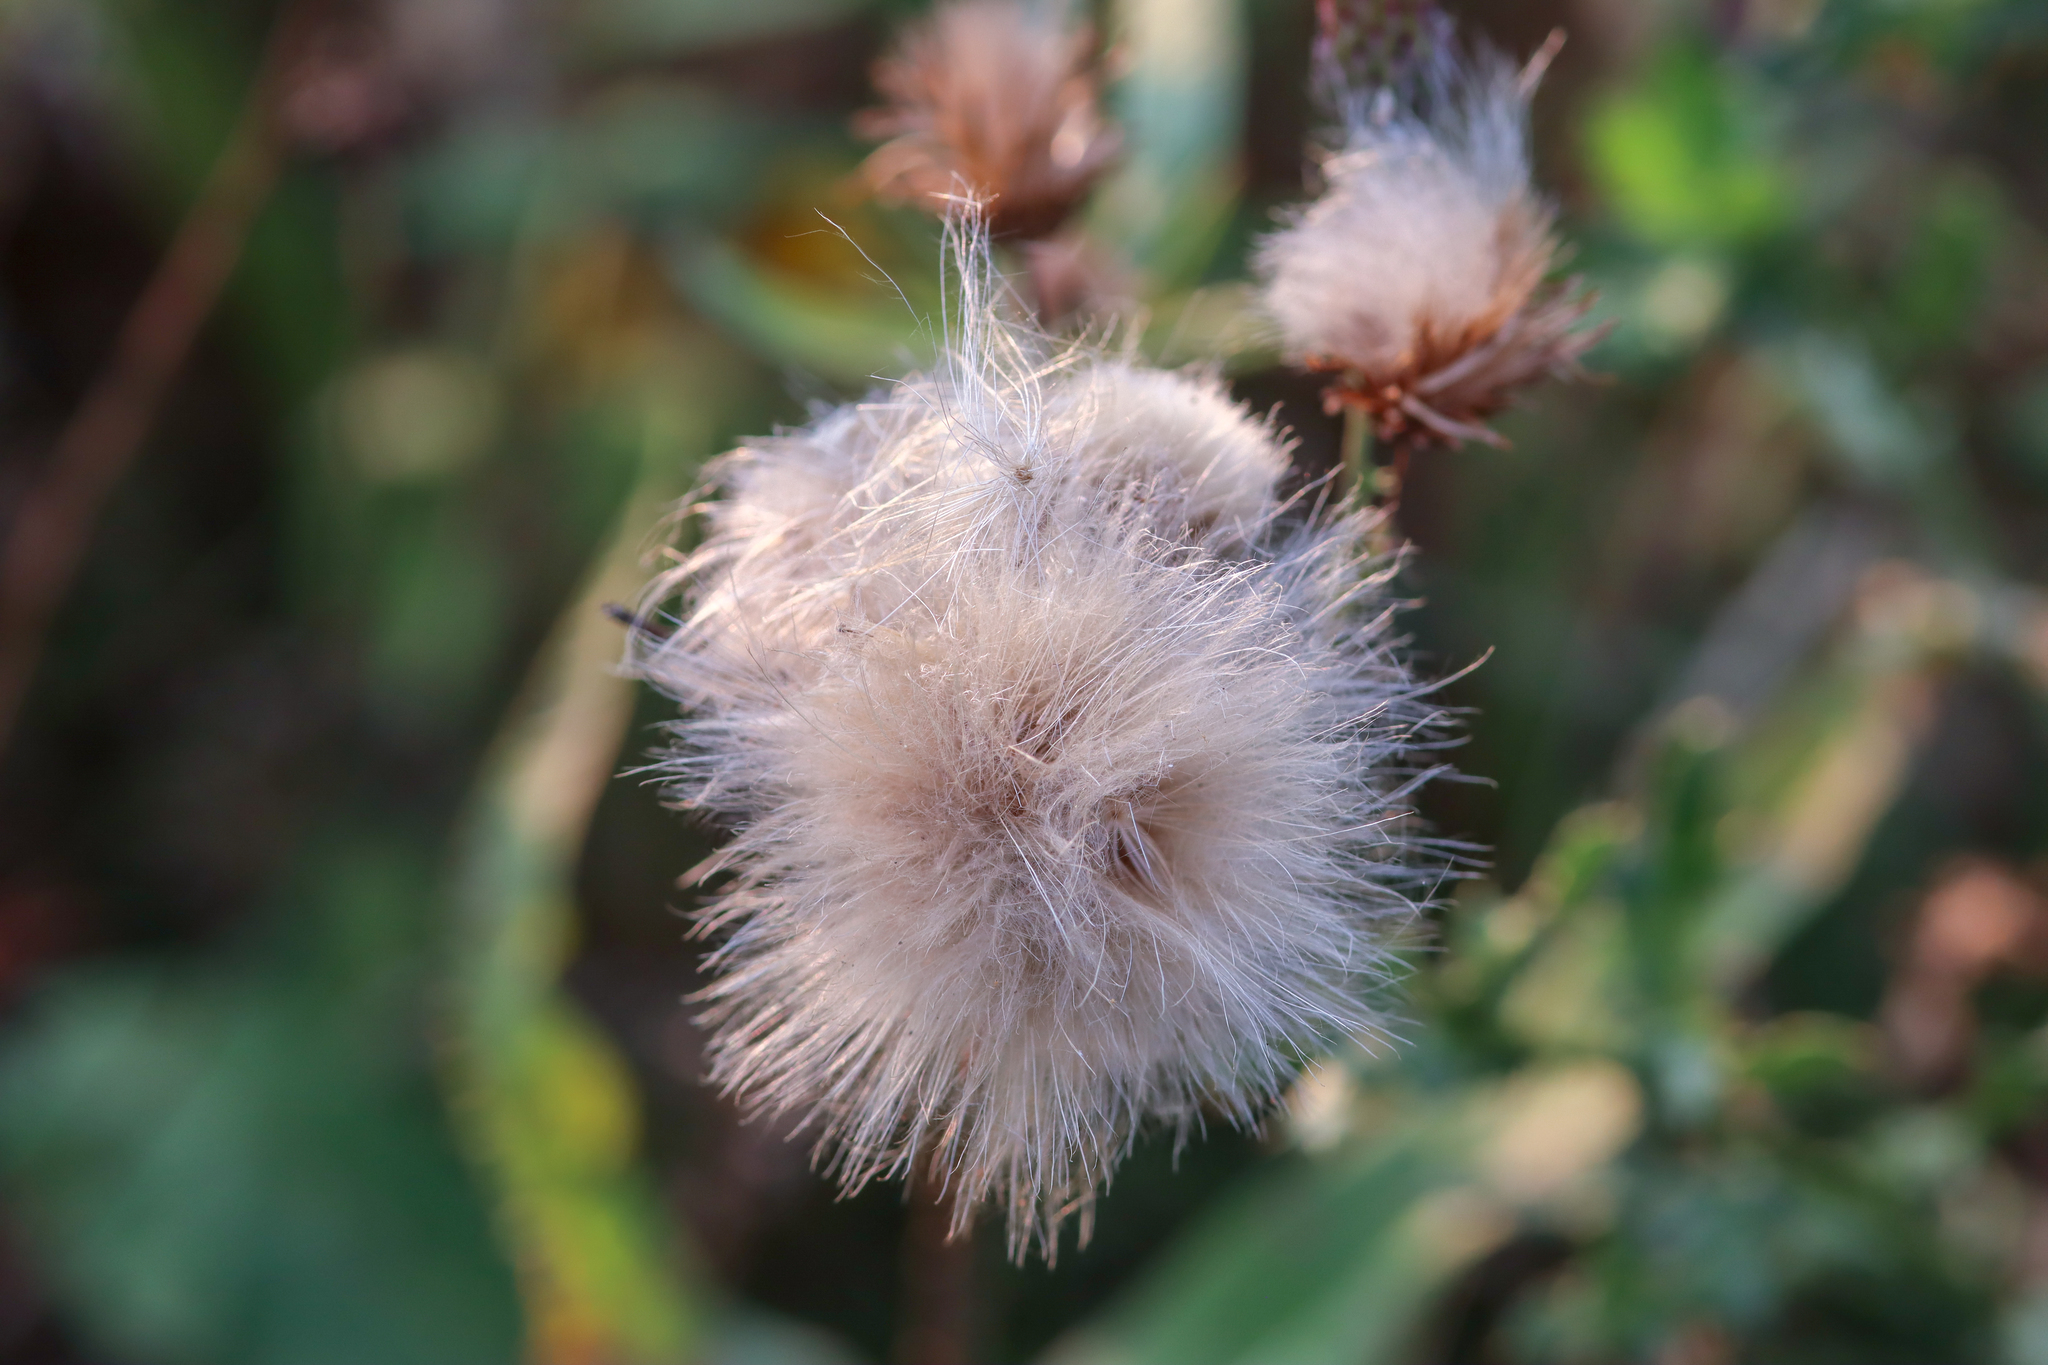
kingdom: Plantae
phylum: Tracheophyta
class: Magnoliopsida
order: Asterales
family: Asteraceae
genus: Cirsium
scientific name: Cirsium arvense
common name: Creeping thistle
